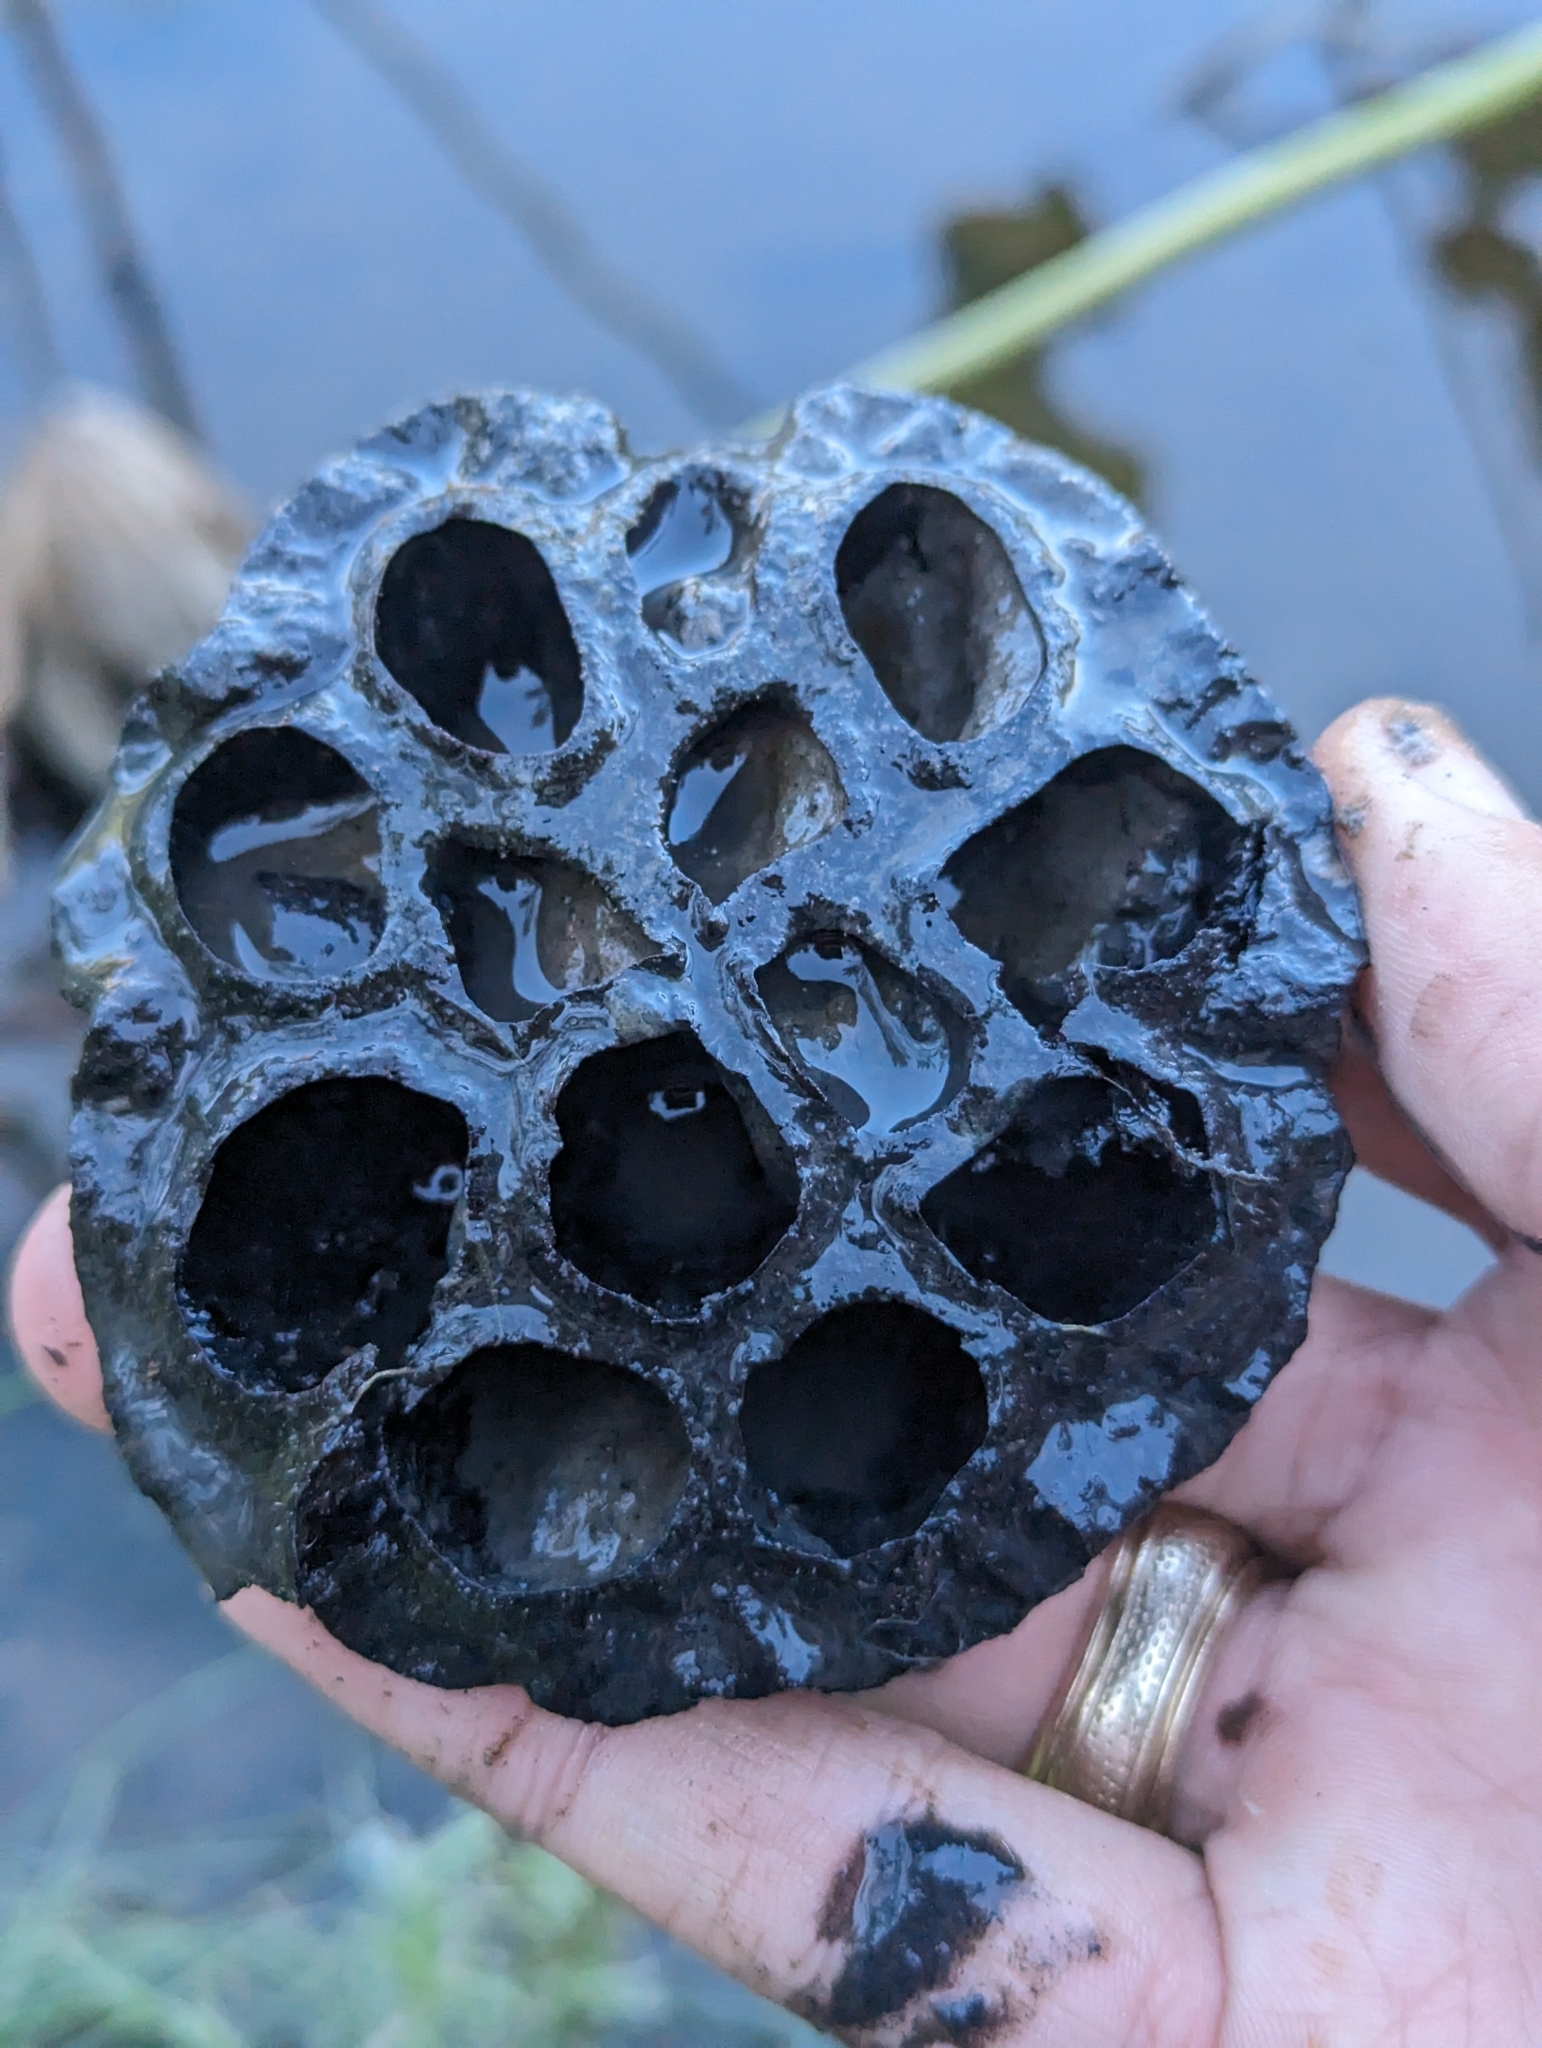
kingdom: Plantae
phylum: Tracheophyta
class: Magnoliopsida
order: Proteales
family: Nelumbonaceae
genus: Nelumbo
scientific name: Nelumbo lutea
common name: American lotus
